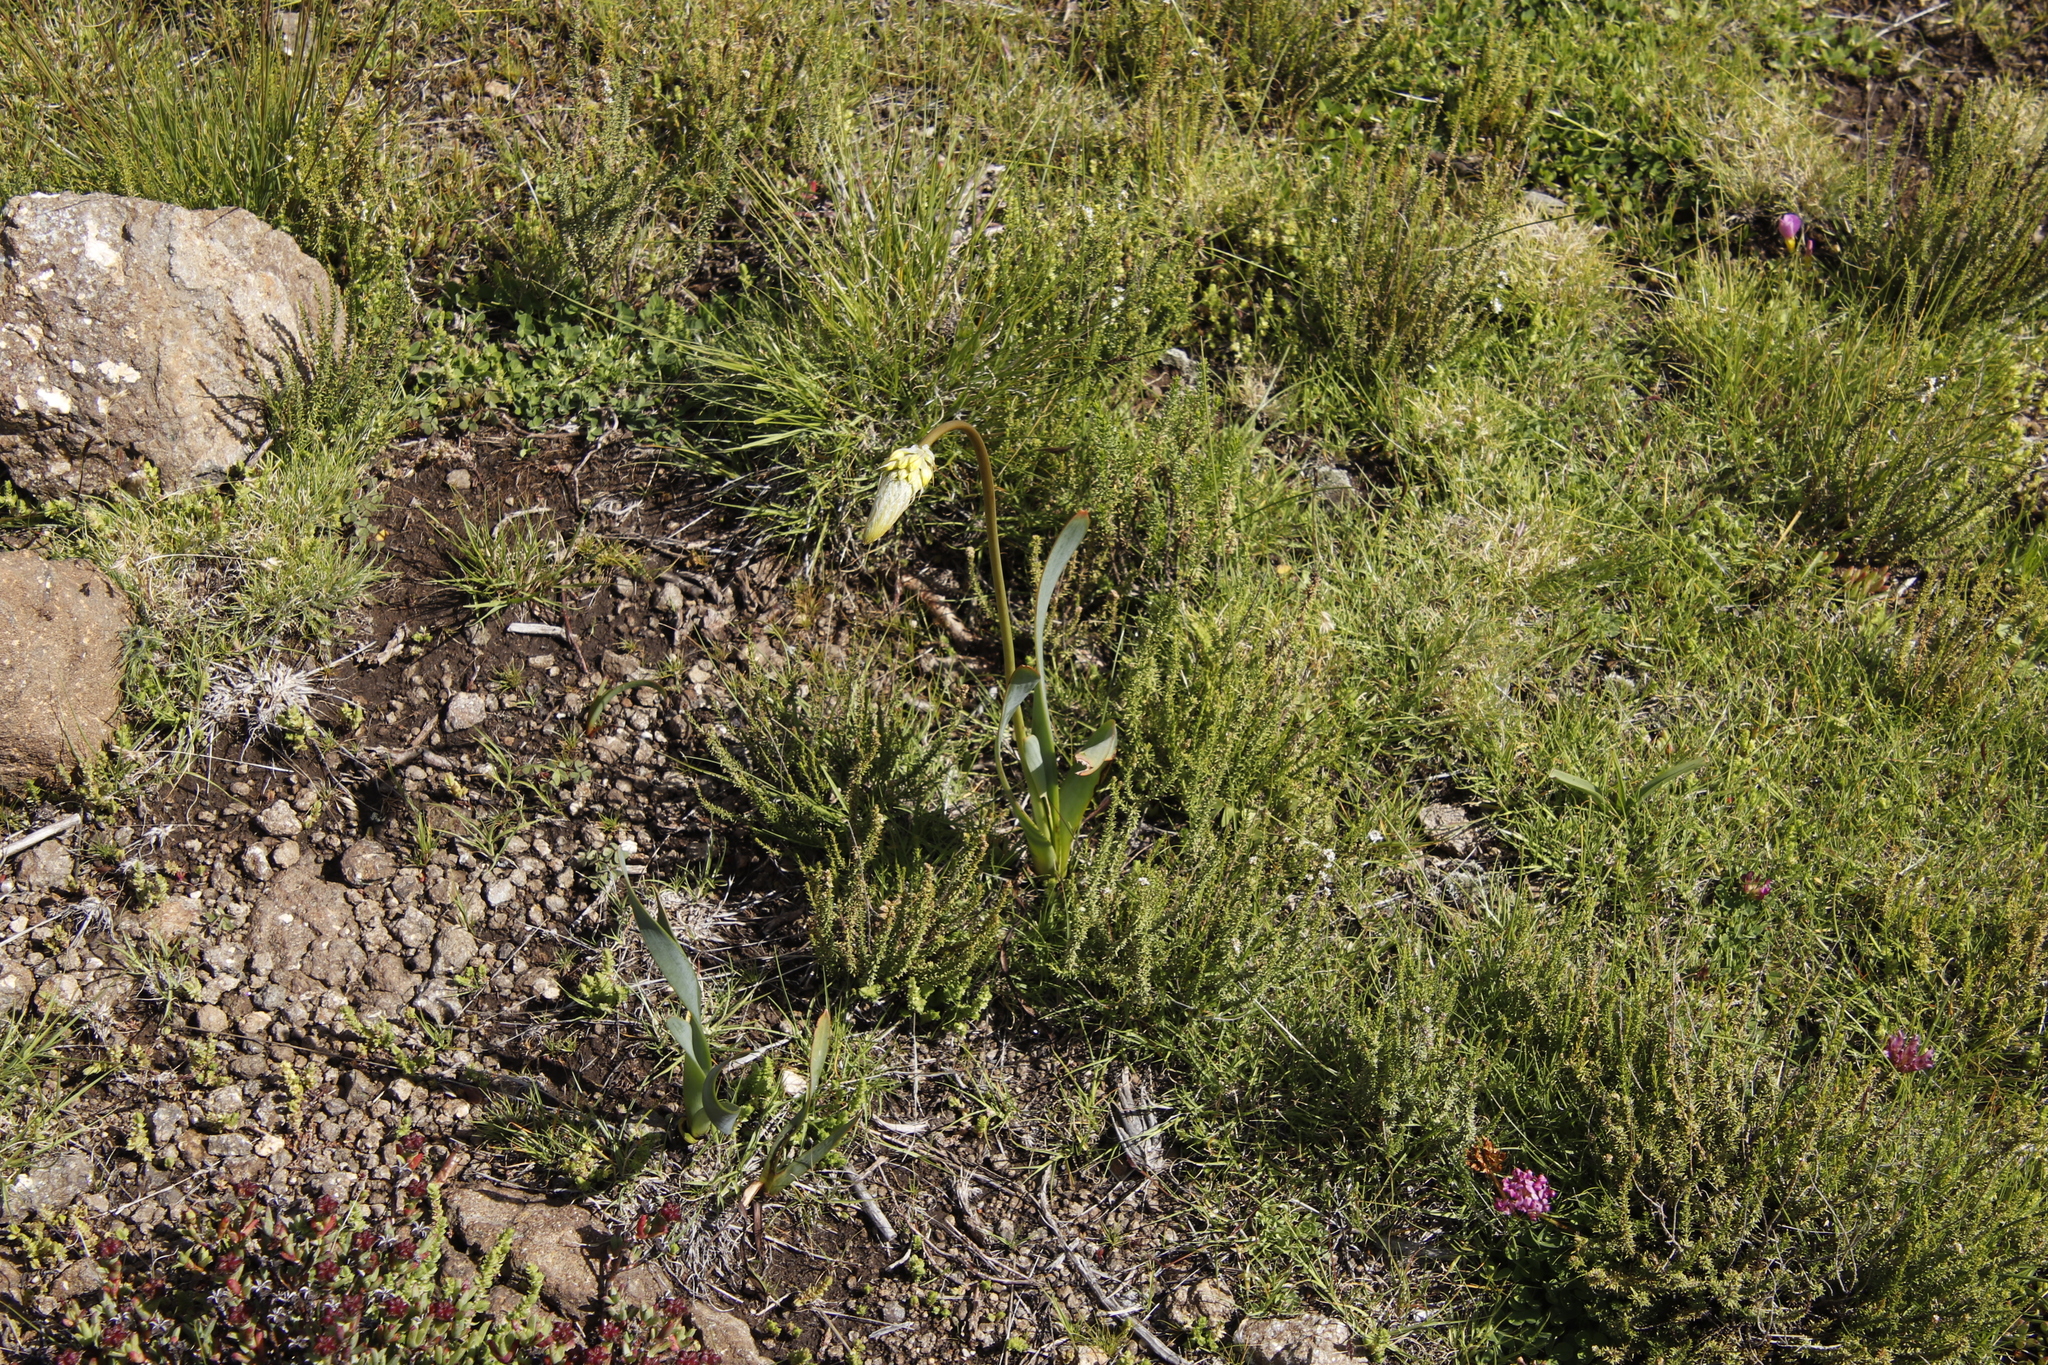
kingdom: Plantae
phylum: Tracheophyta
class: Liliopsida
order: Asparagales
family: Asphodelaceae
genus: Bulbine
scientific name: Bulbine narcissifolia
